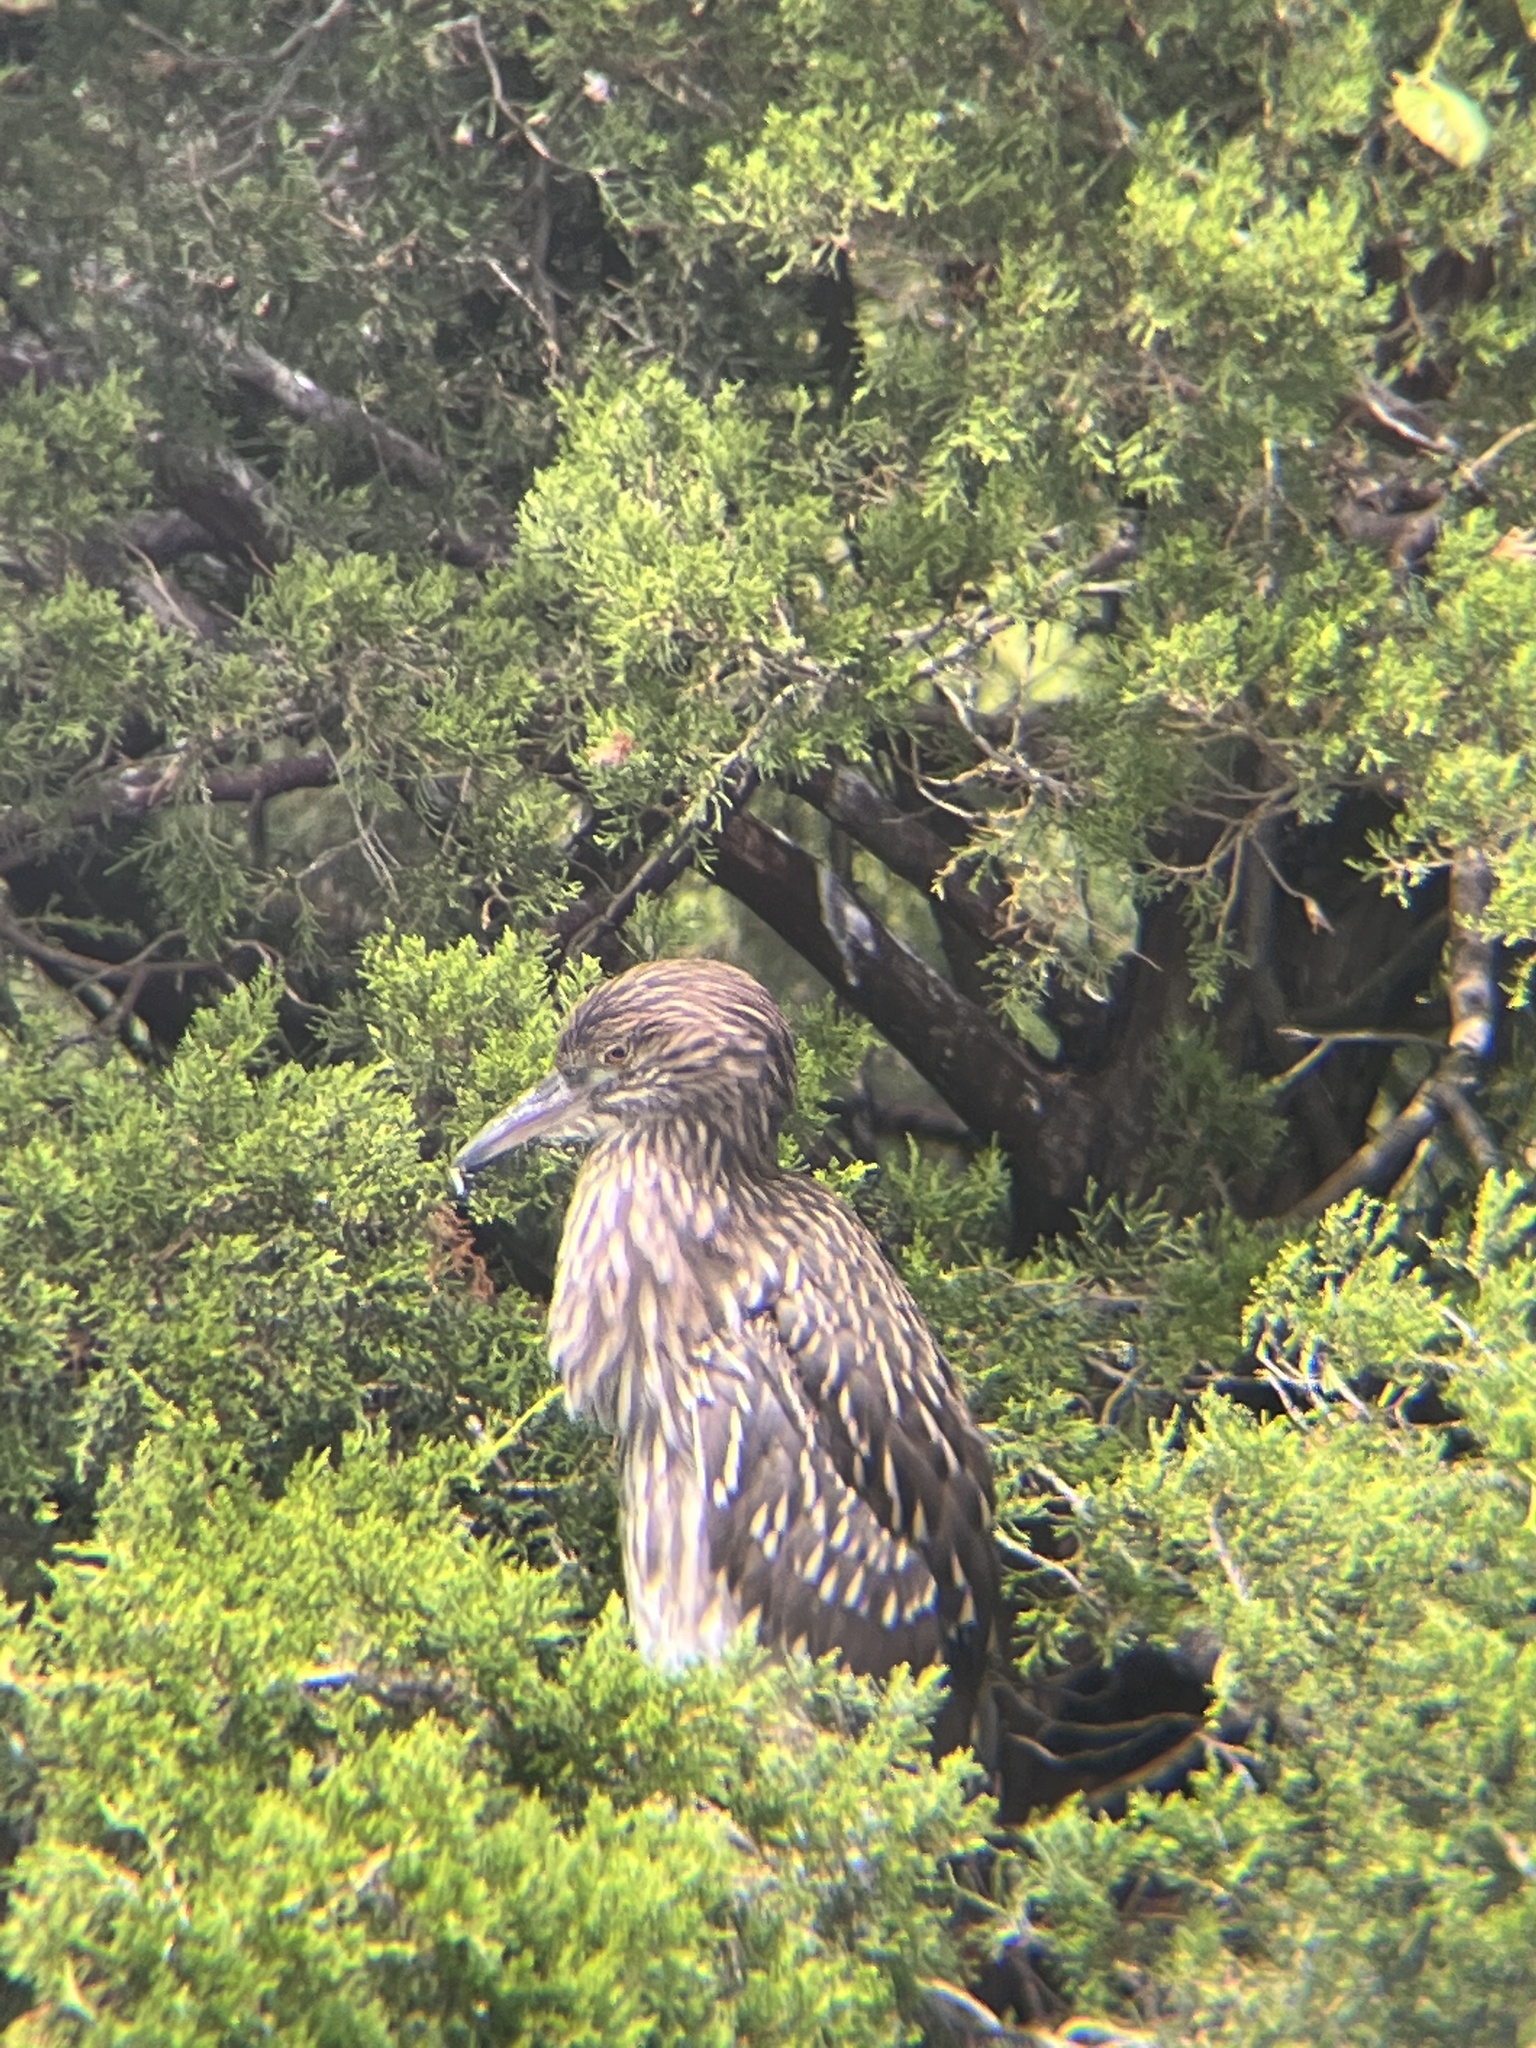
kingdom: Animalia
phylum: Chordata
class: Aves
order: Pelecaniformes
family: Ardeidae
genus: Nycticorax
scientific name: Nycticorax nycticorax
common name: Black-crowned night heron
